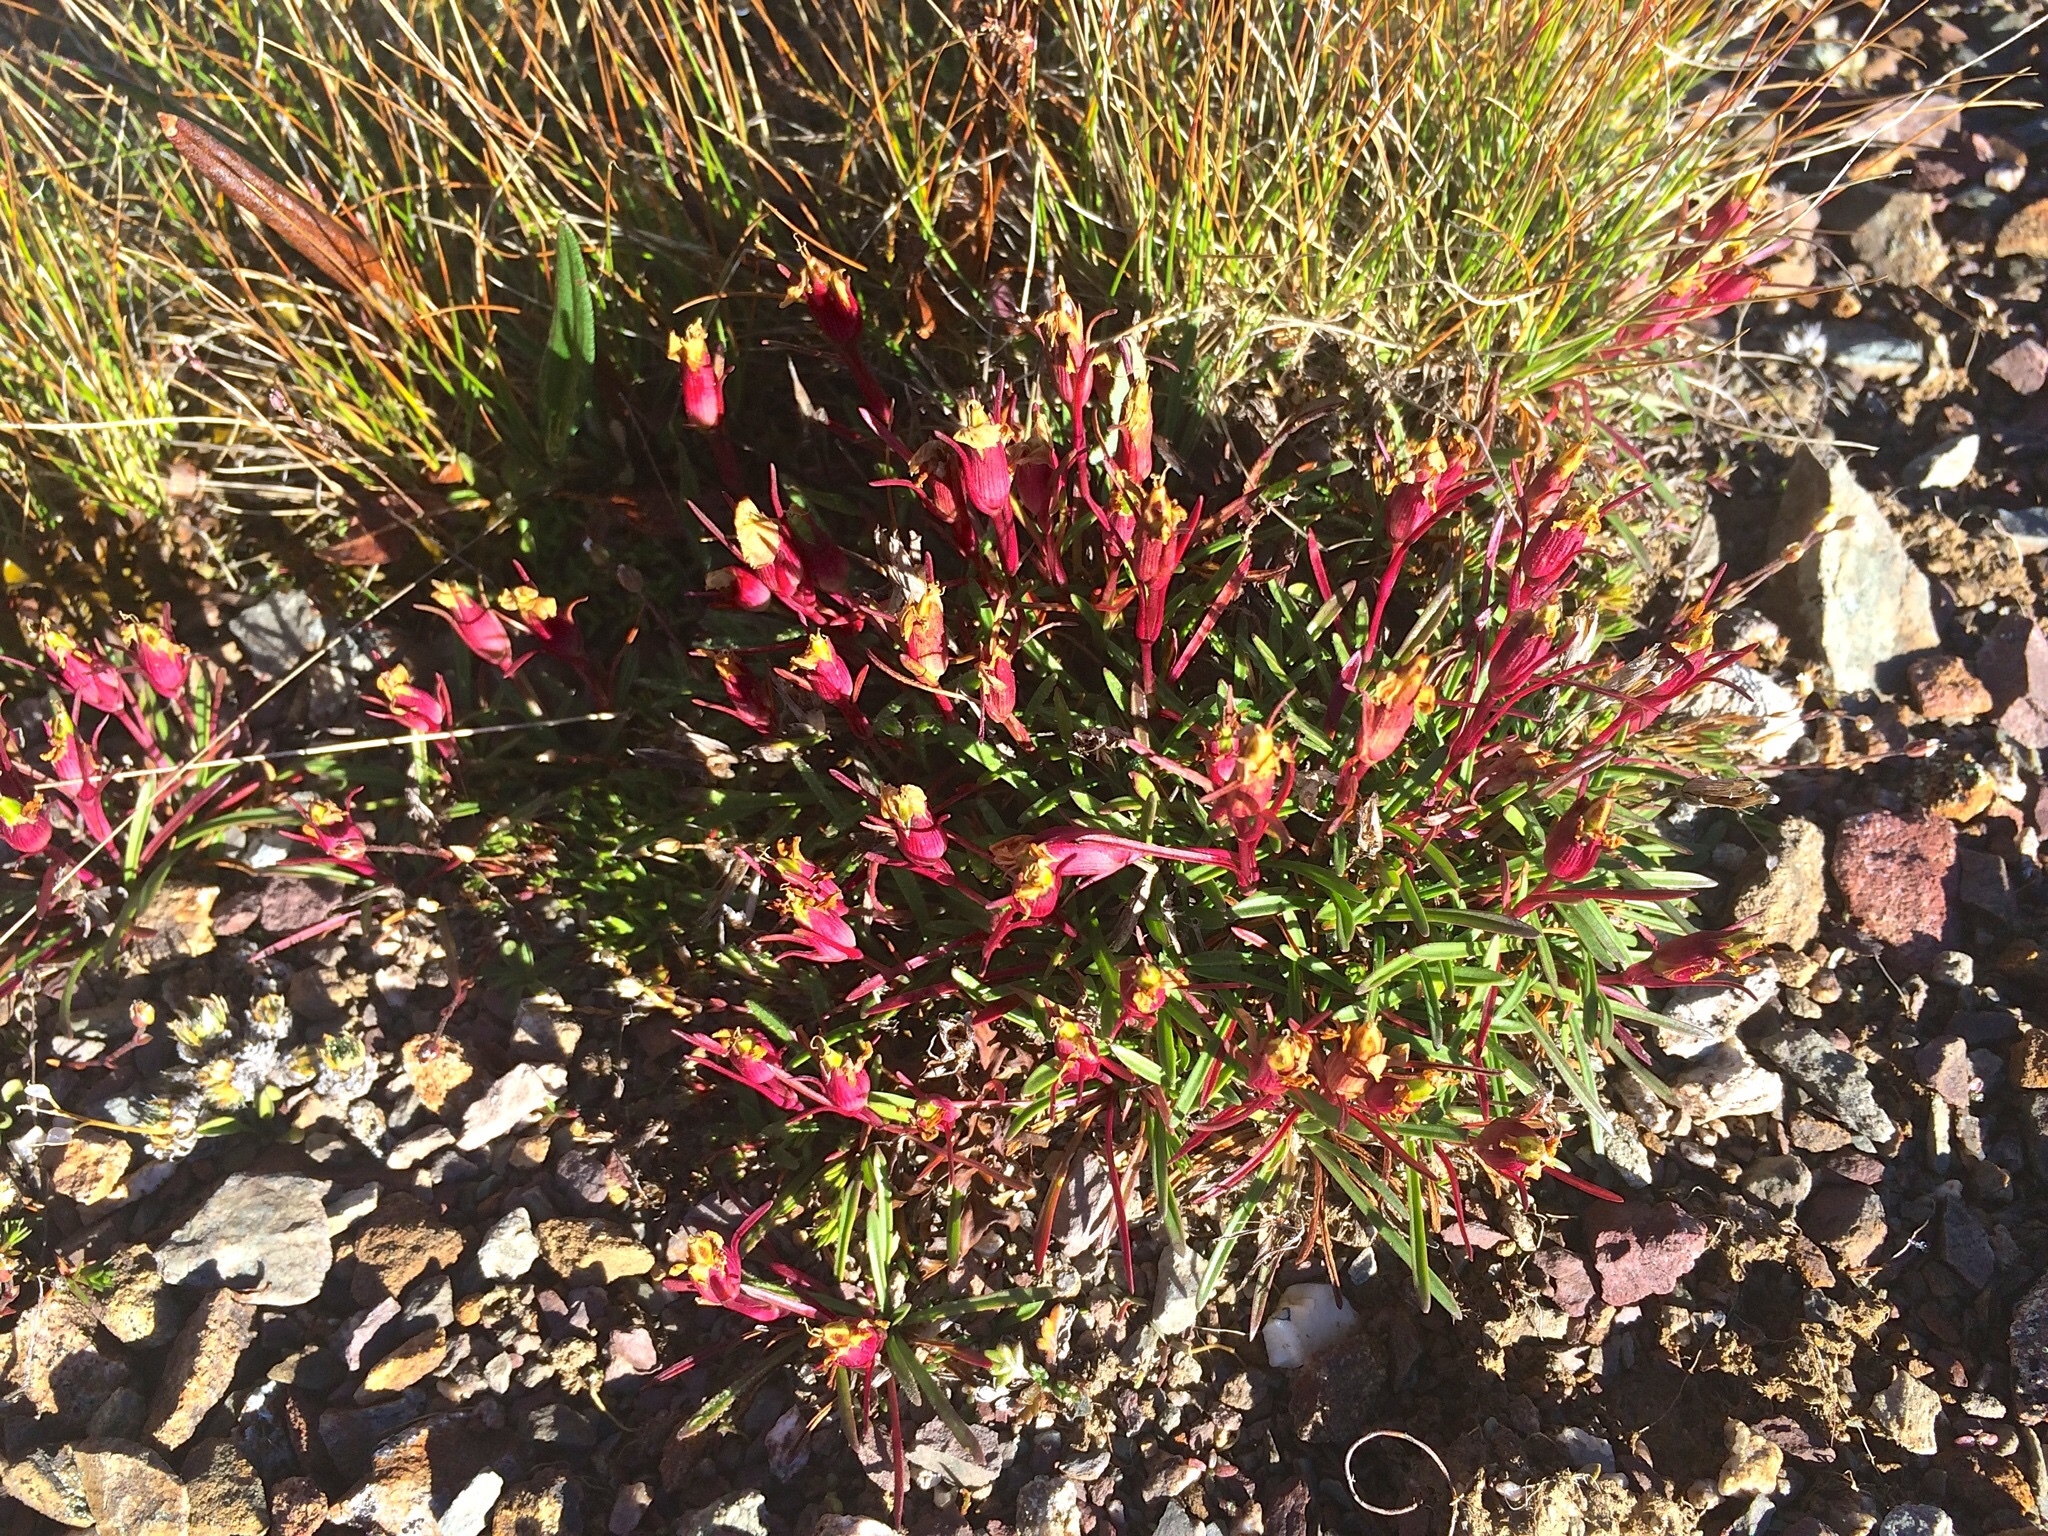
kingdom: Plantae
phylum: Tracheophyta
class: Magnoliopsida
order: Caryophyllales
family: Caryophyllaceae
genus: Dianthus
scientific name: Dianthus glacialis
